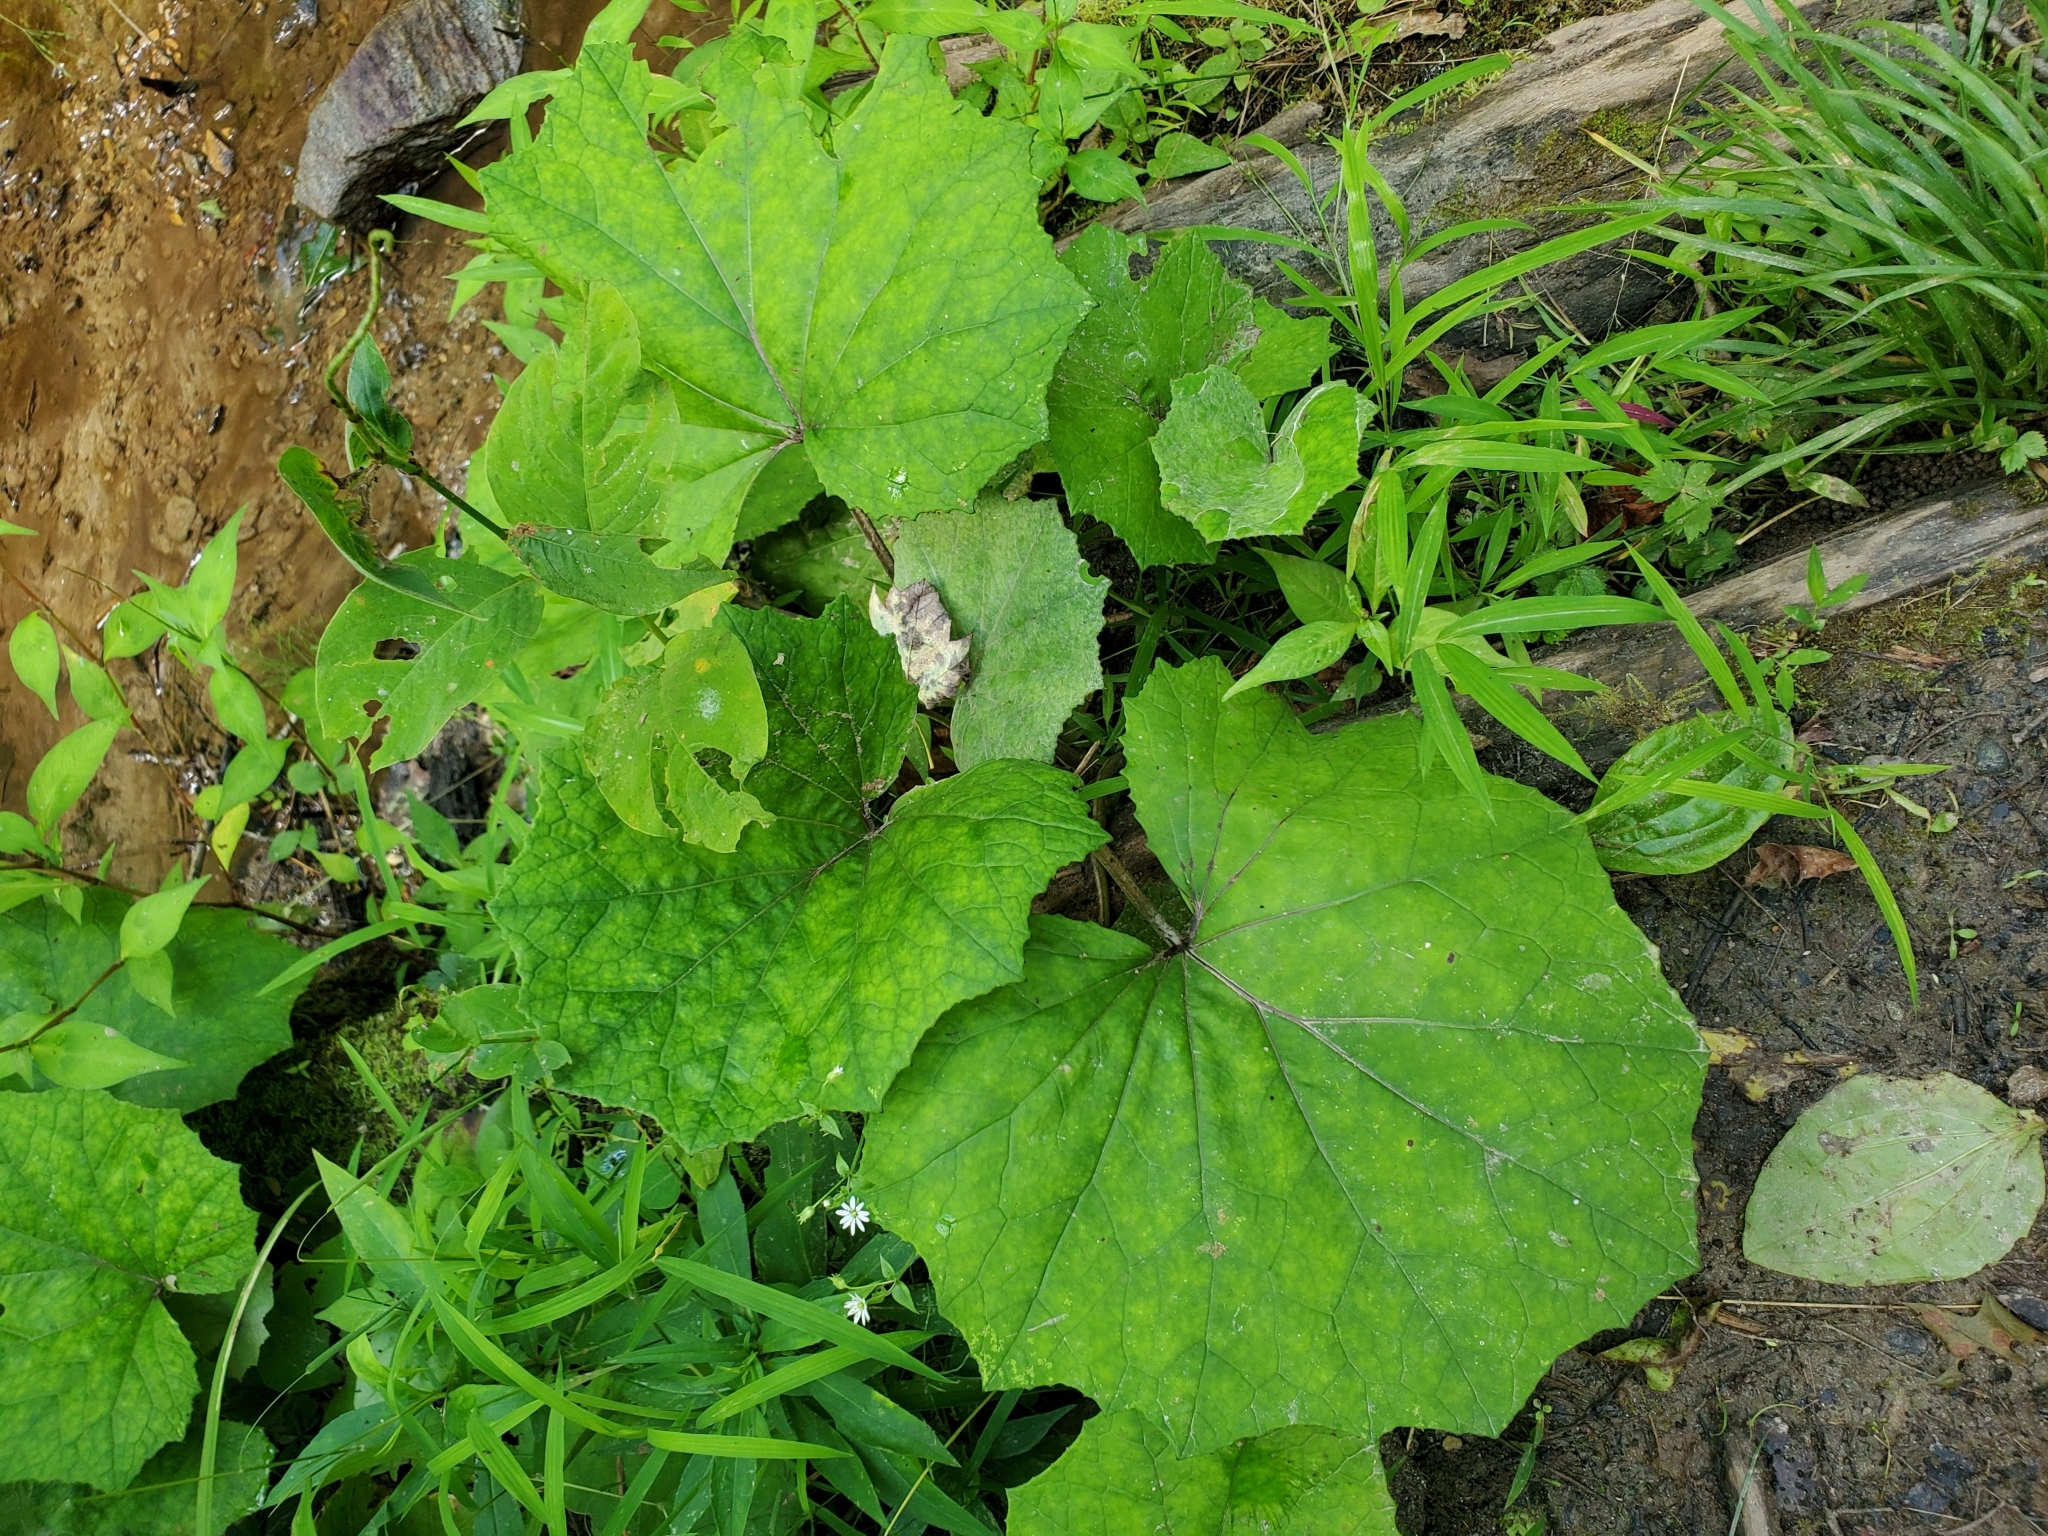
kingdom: Plantae
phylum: Tracheophyta
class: Magnoliopsida
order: Asterales
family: Asteraceae
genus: Tussilago
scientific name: Tussilago farfara
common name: Coltsfoot
